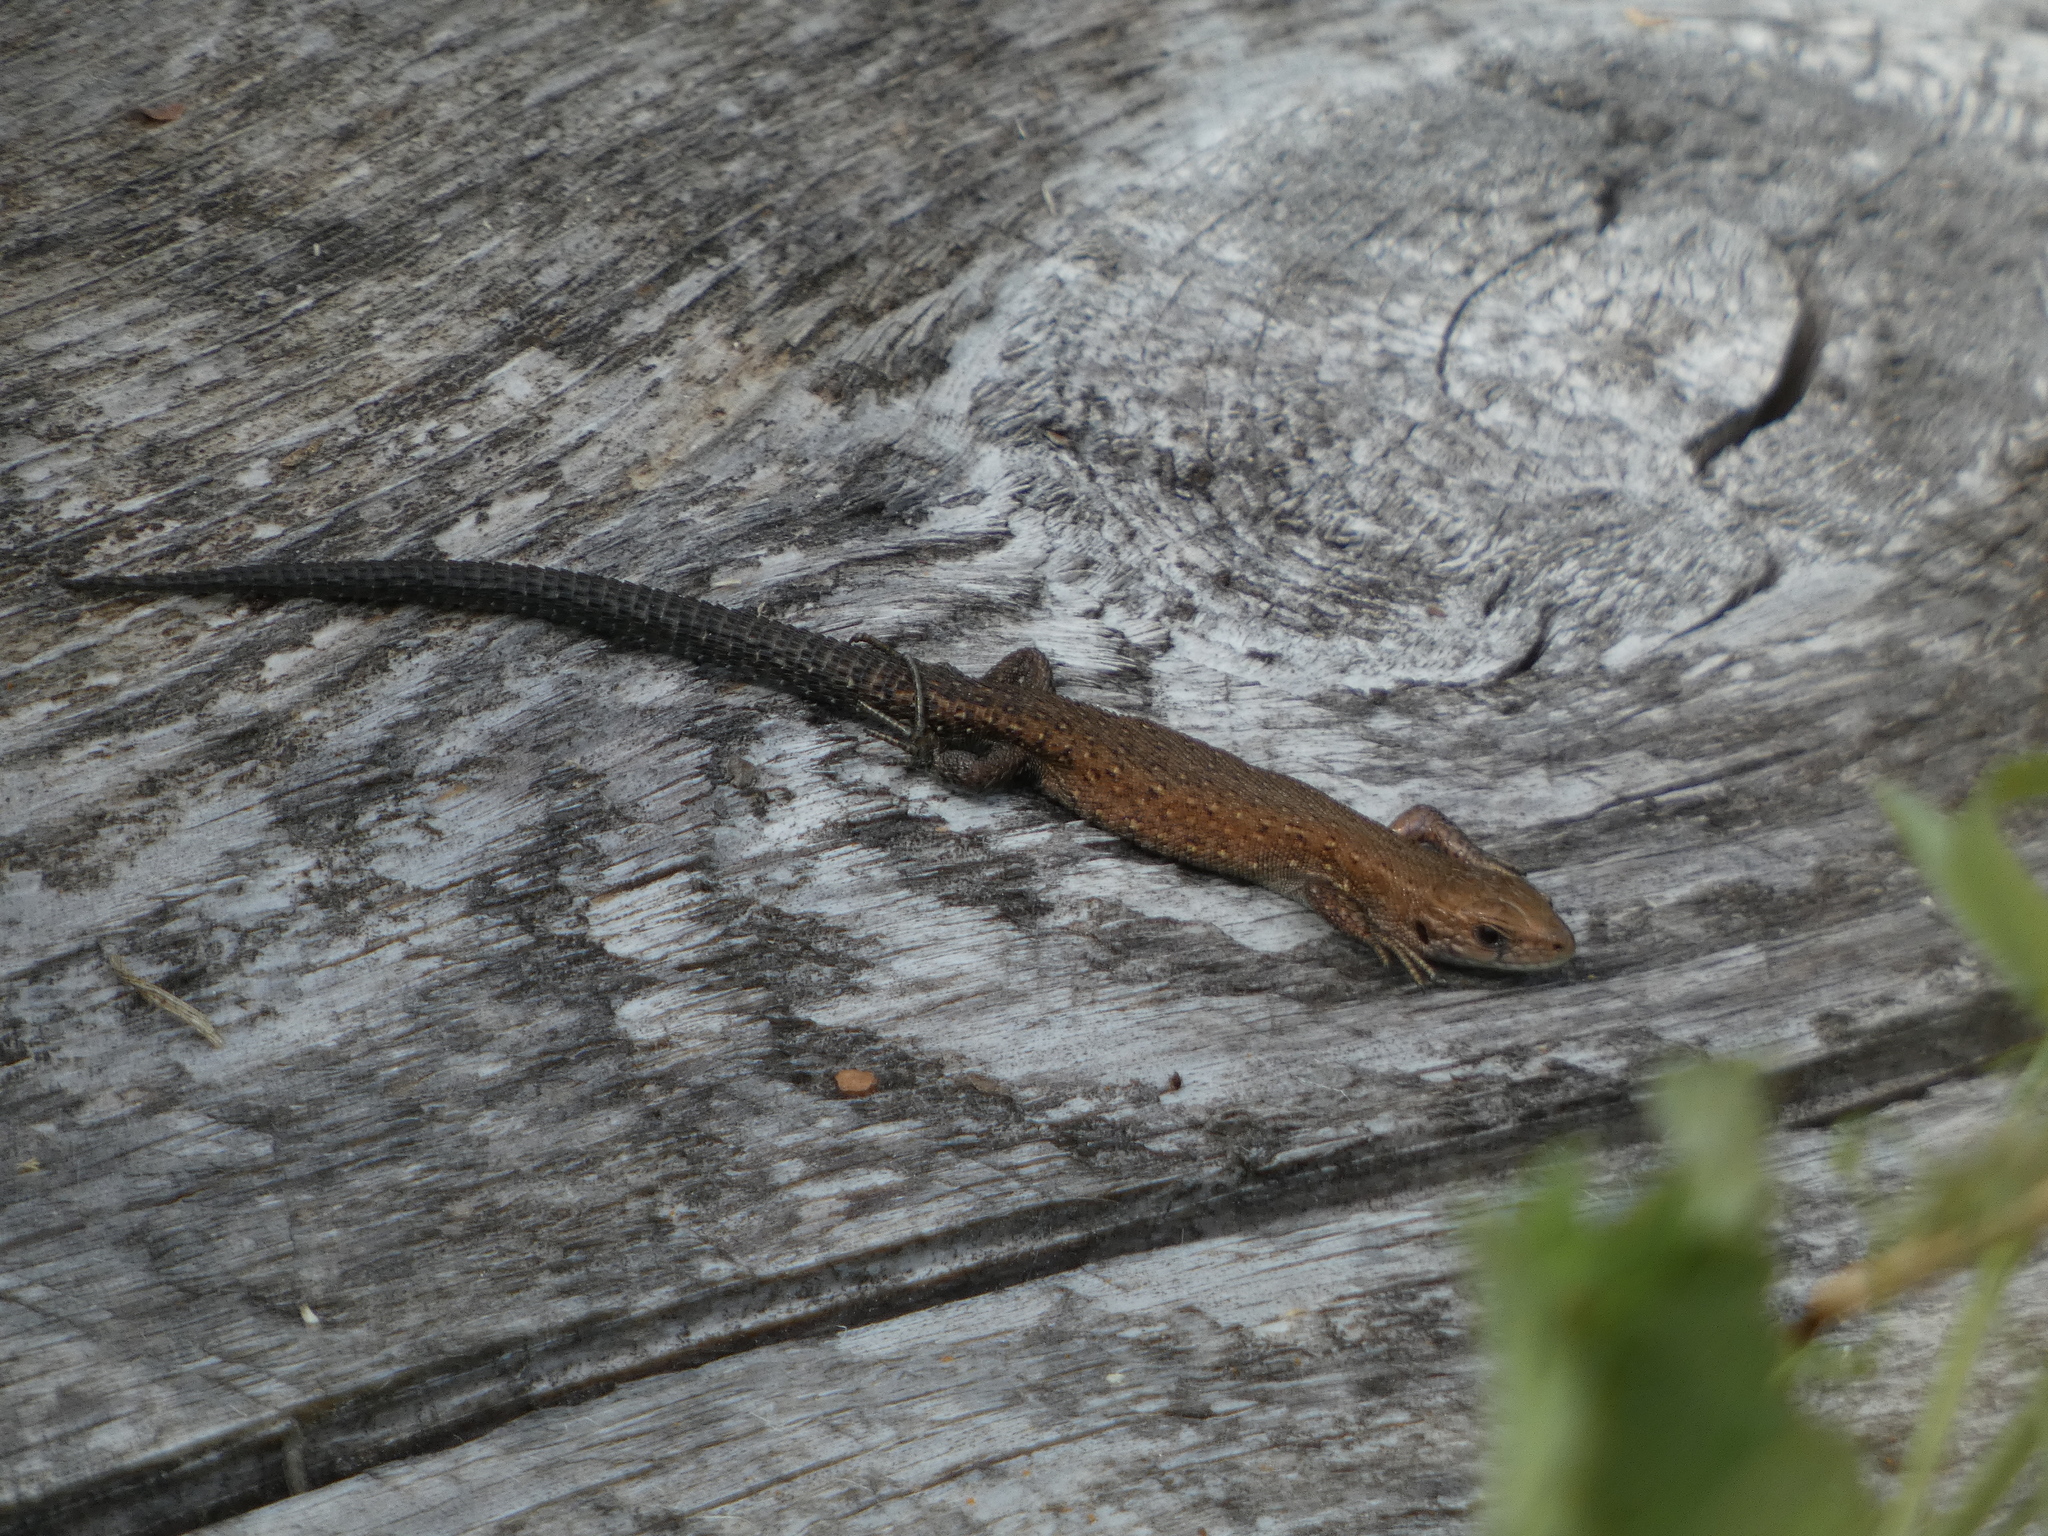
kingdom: Animalia
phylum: Chordata
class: Squamata
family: Lacertidae
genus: Zootoca
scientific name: Zootoca vivipara
